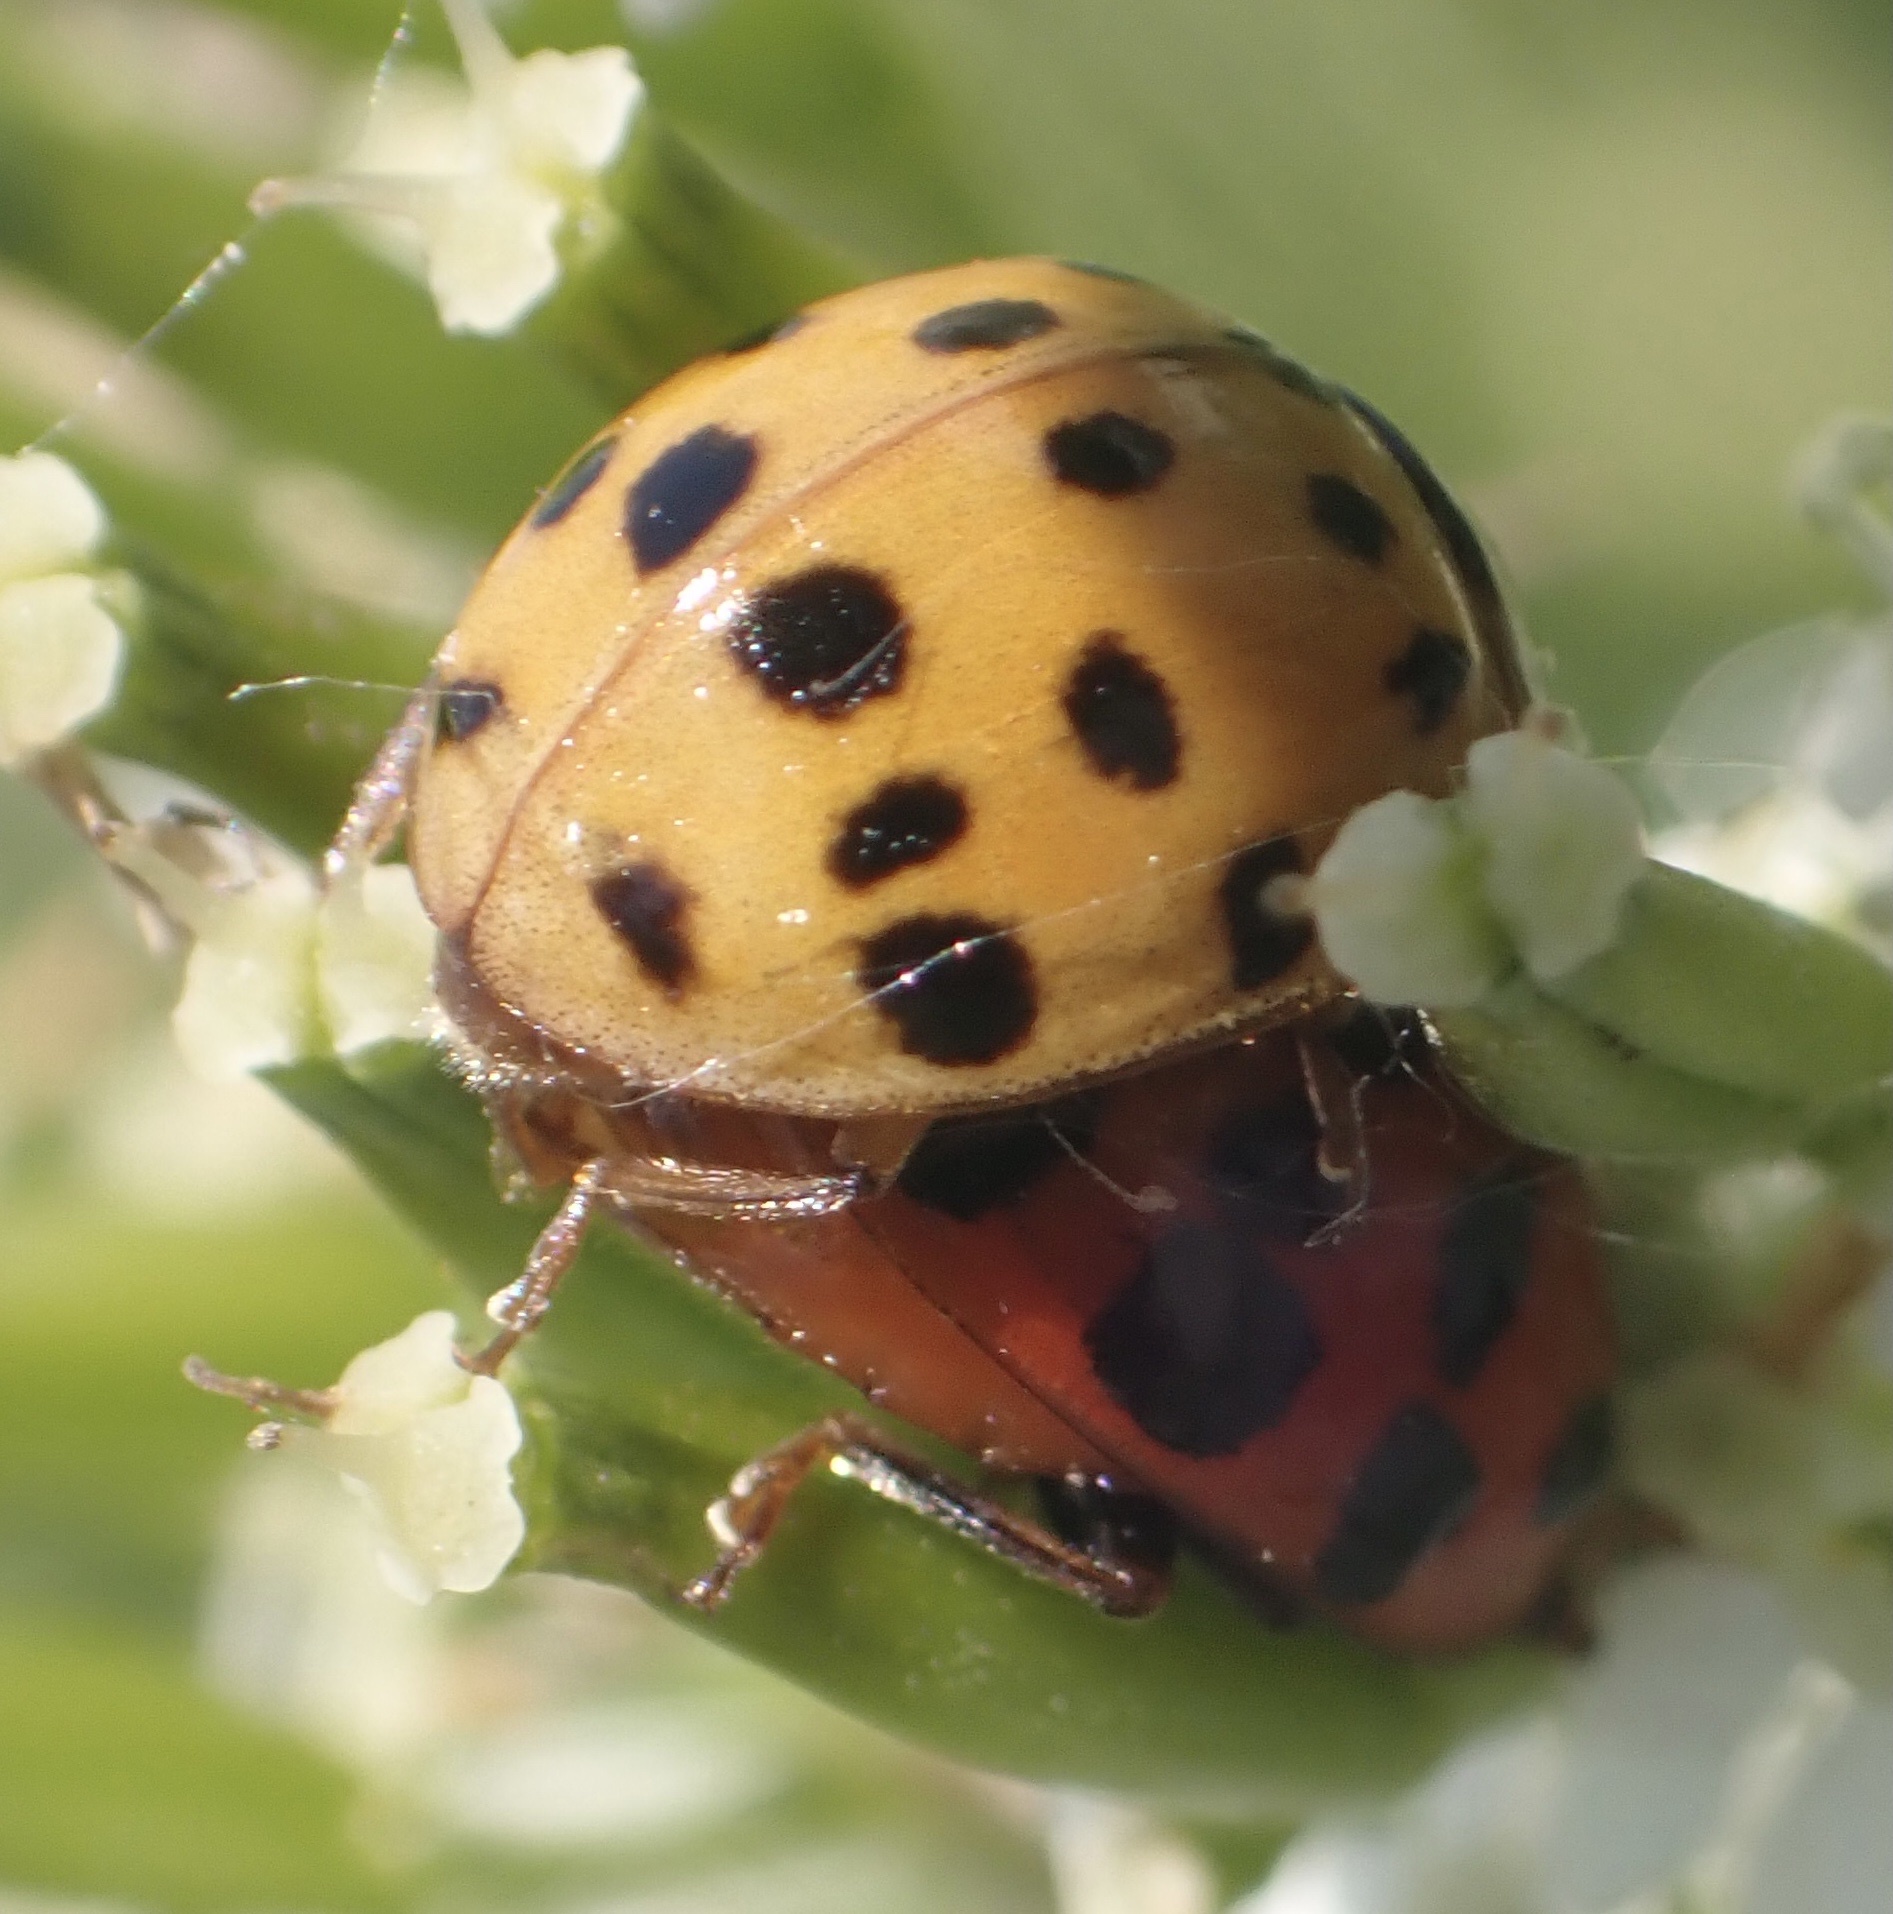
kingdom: Animalia
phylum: Arthropoda
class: Insecta
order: Coleoptera
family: Coccinellidae
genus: Harmonia
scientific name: Harmonia axyridis
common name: Harlequin ladybird
